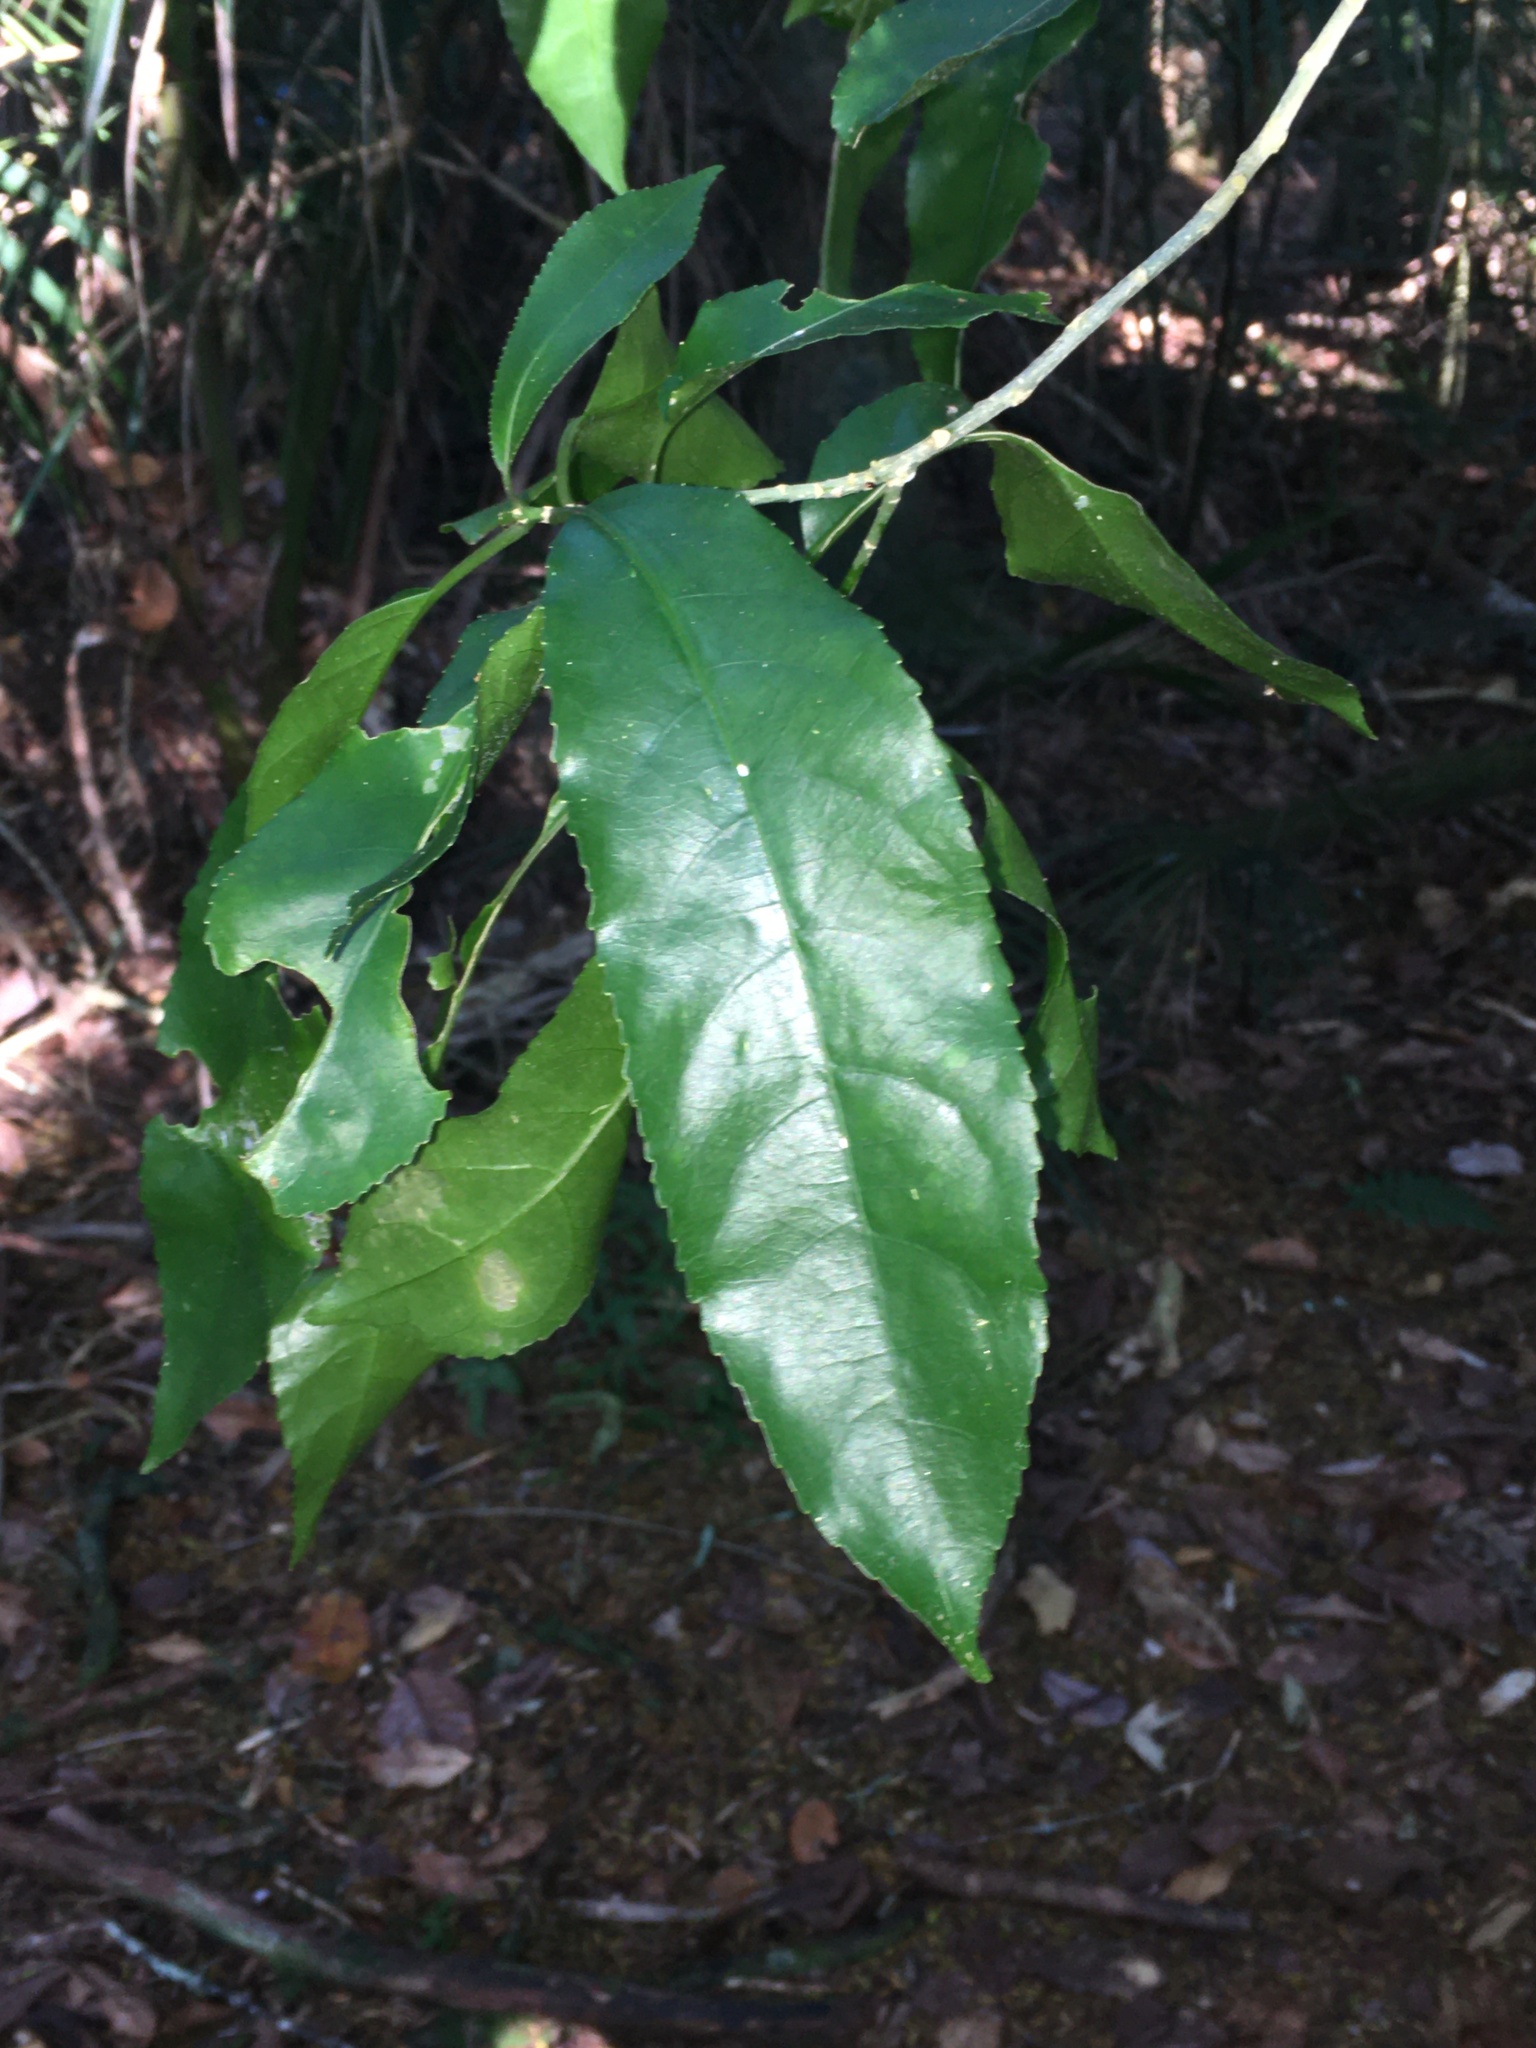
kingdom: Plantae
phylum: Tracheophyta
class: Magnoliopsida
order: Malpighiales
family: Violaceae
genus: Melicytus
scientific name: Melicytus ramiflorus
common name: Mahoe
